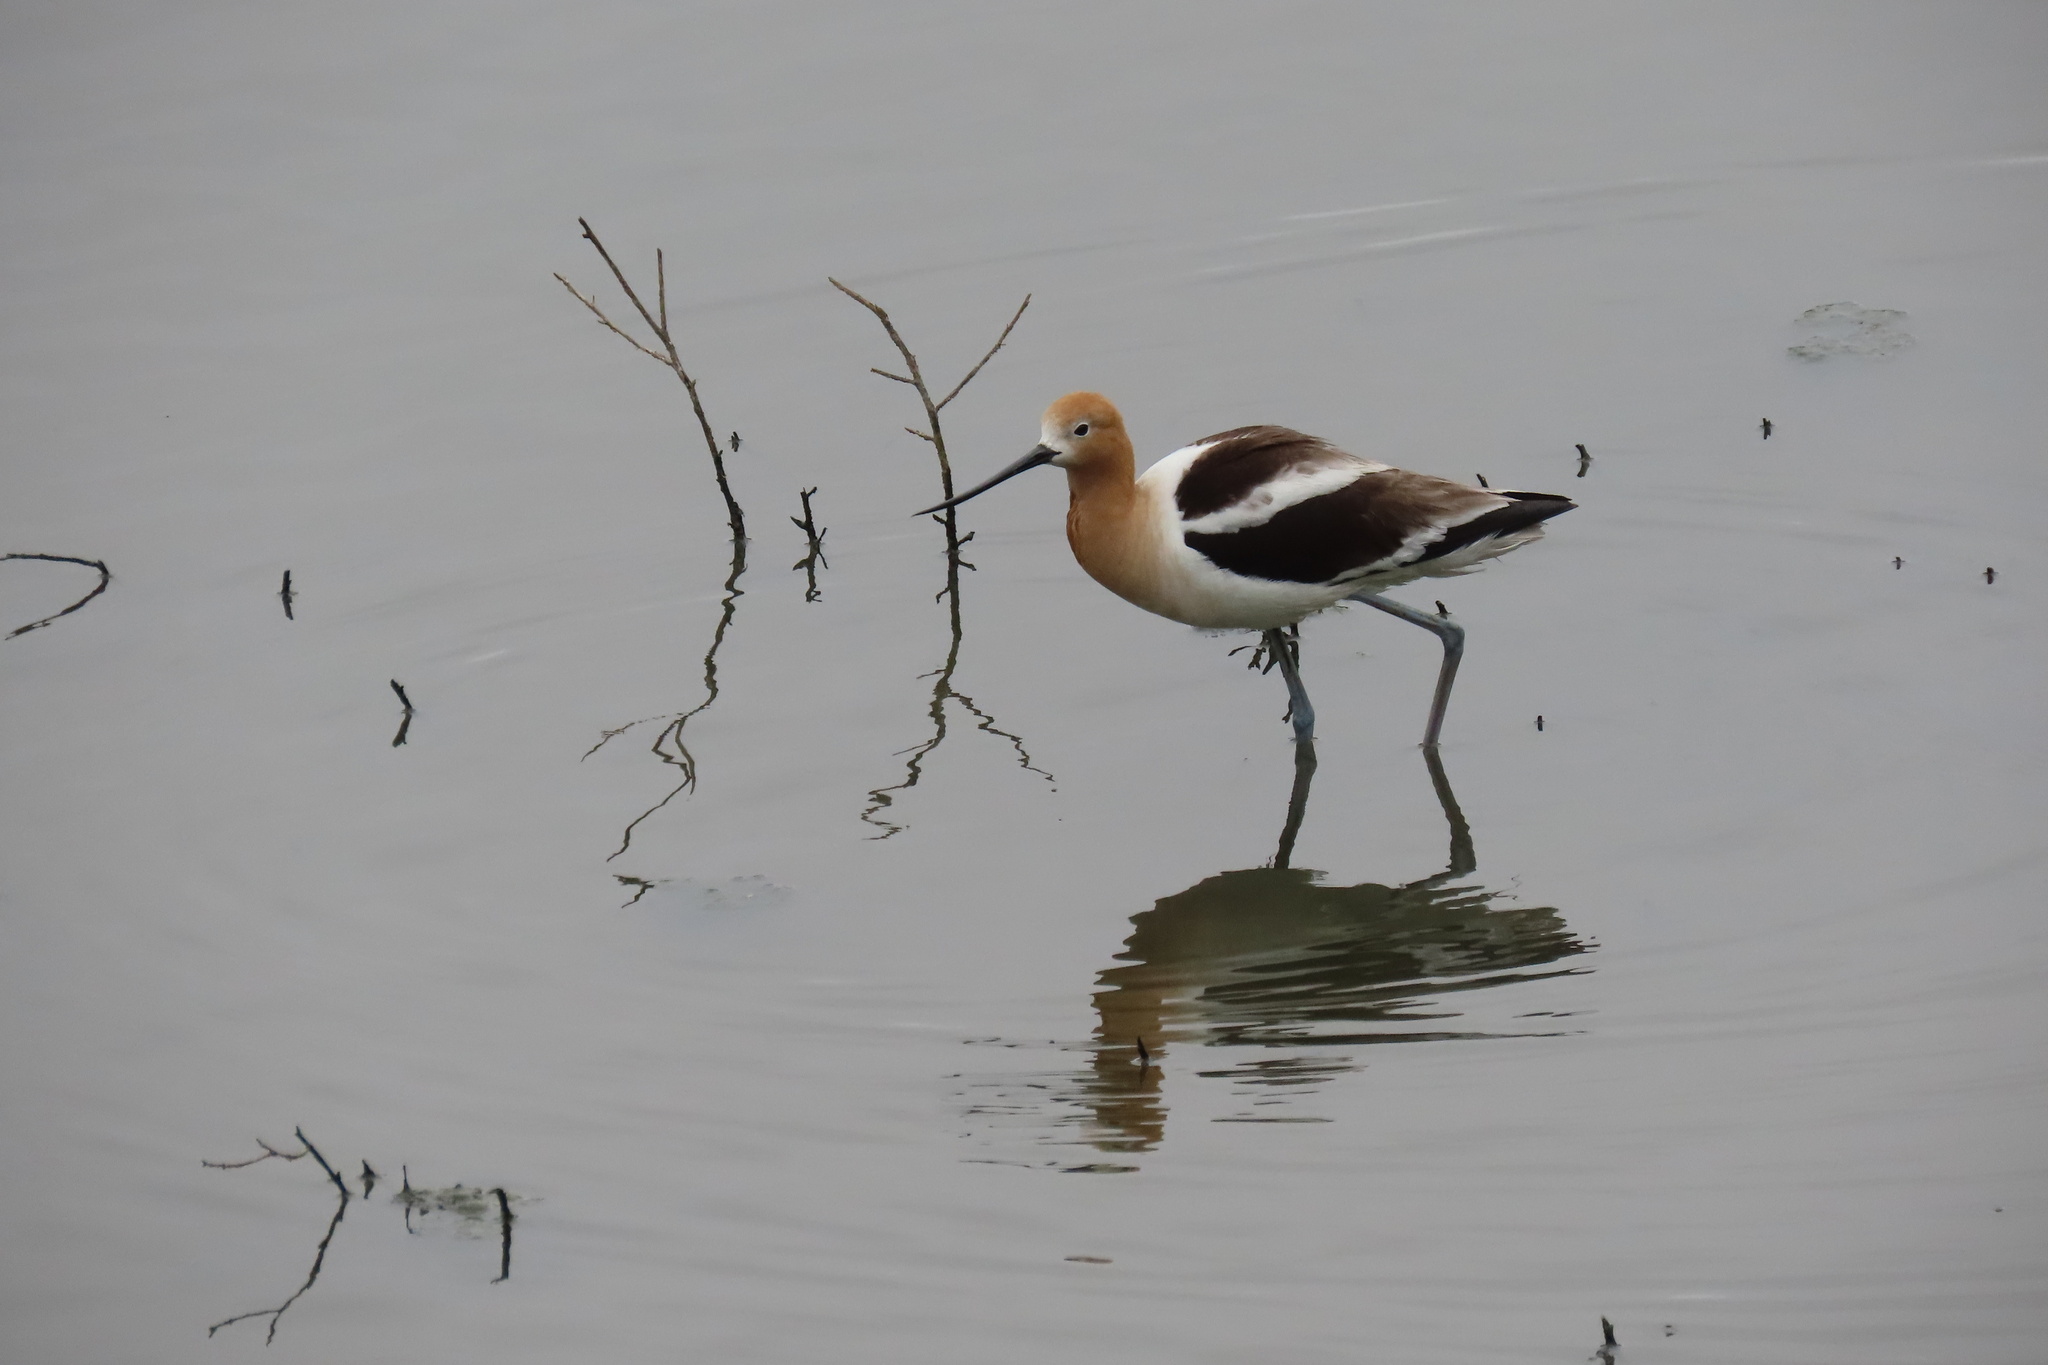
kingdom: Animalia
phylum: Chordata
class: Aves
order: Charadriiformes
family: Recurvirostridae
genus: Recurvirostra
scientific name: Recurvirostra americana
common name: American avocet
